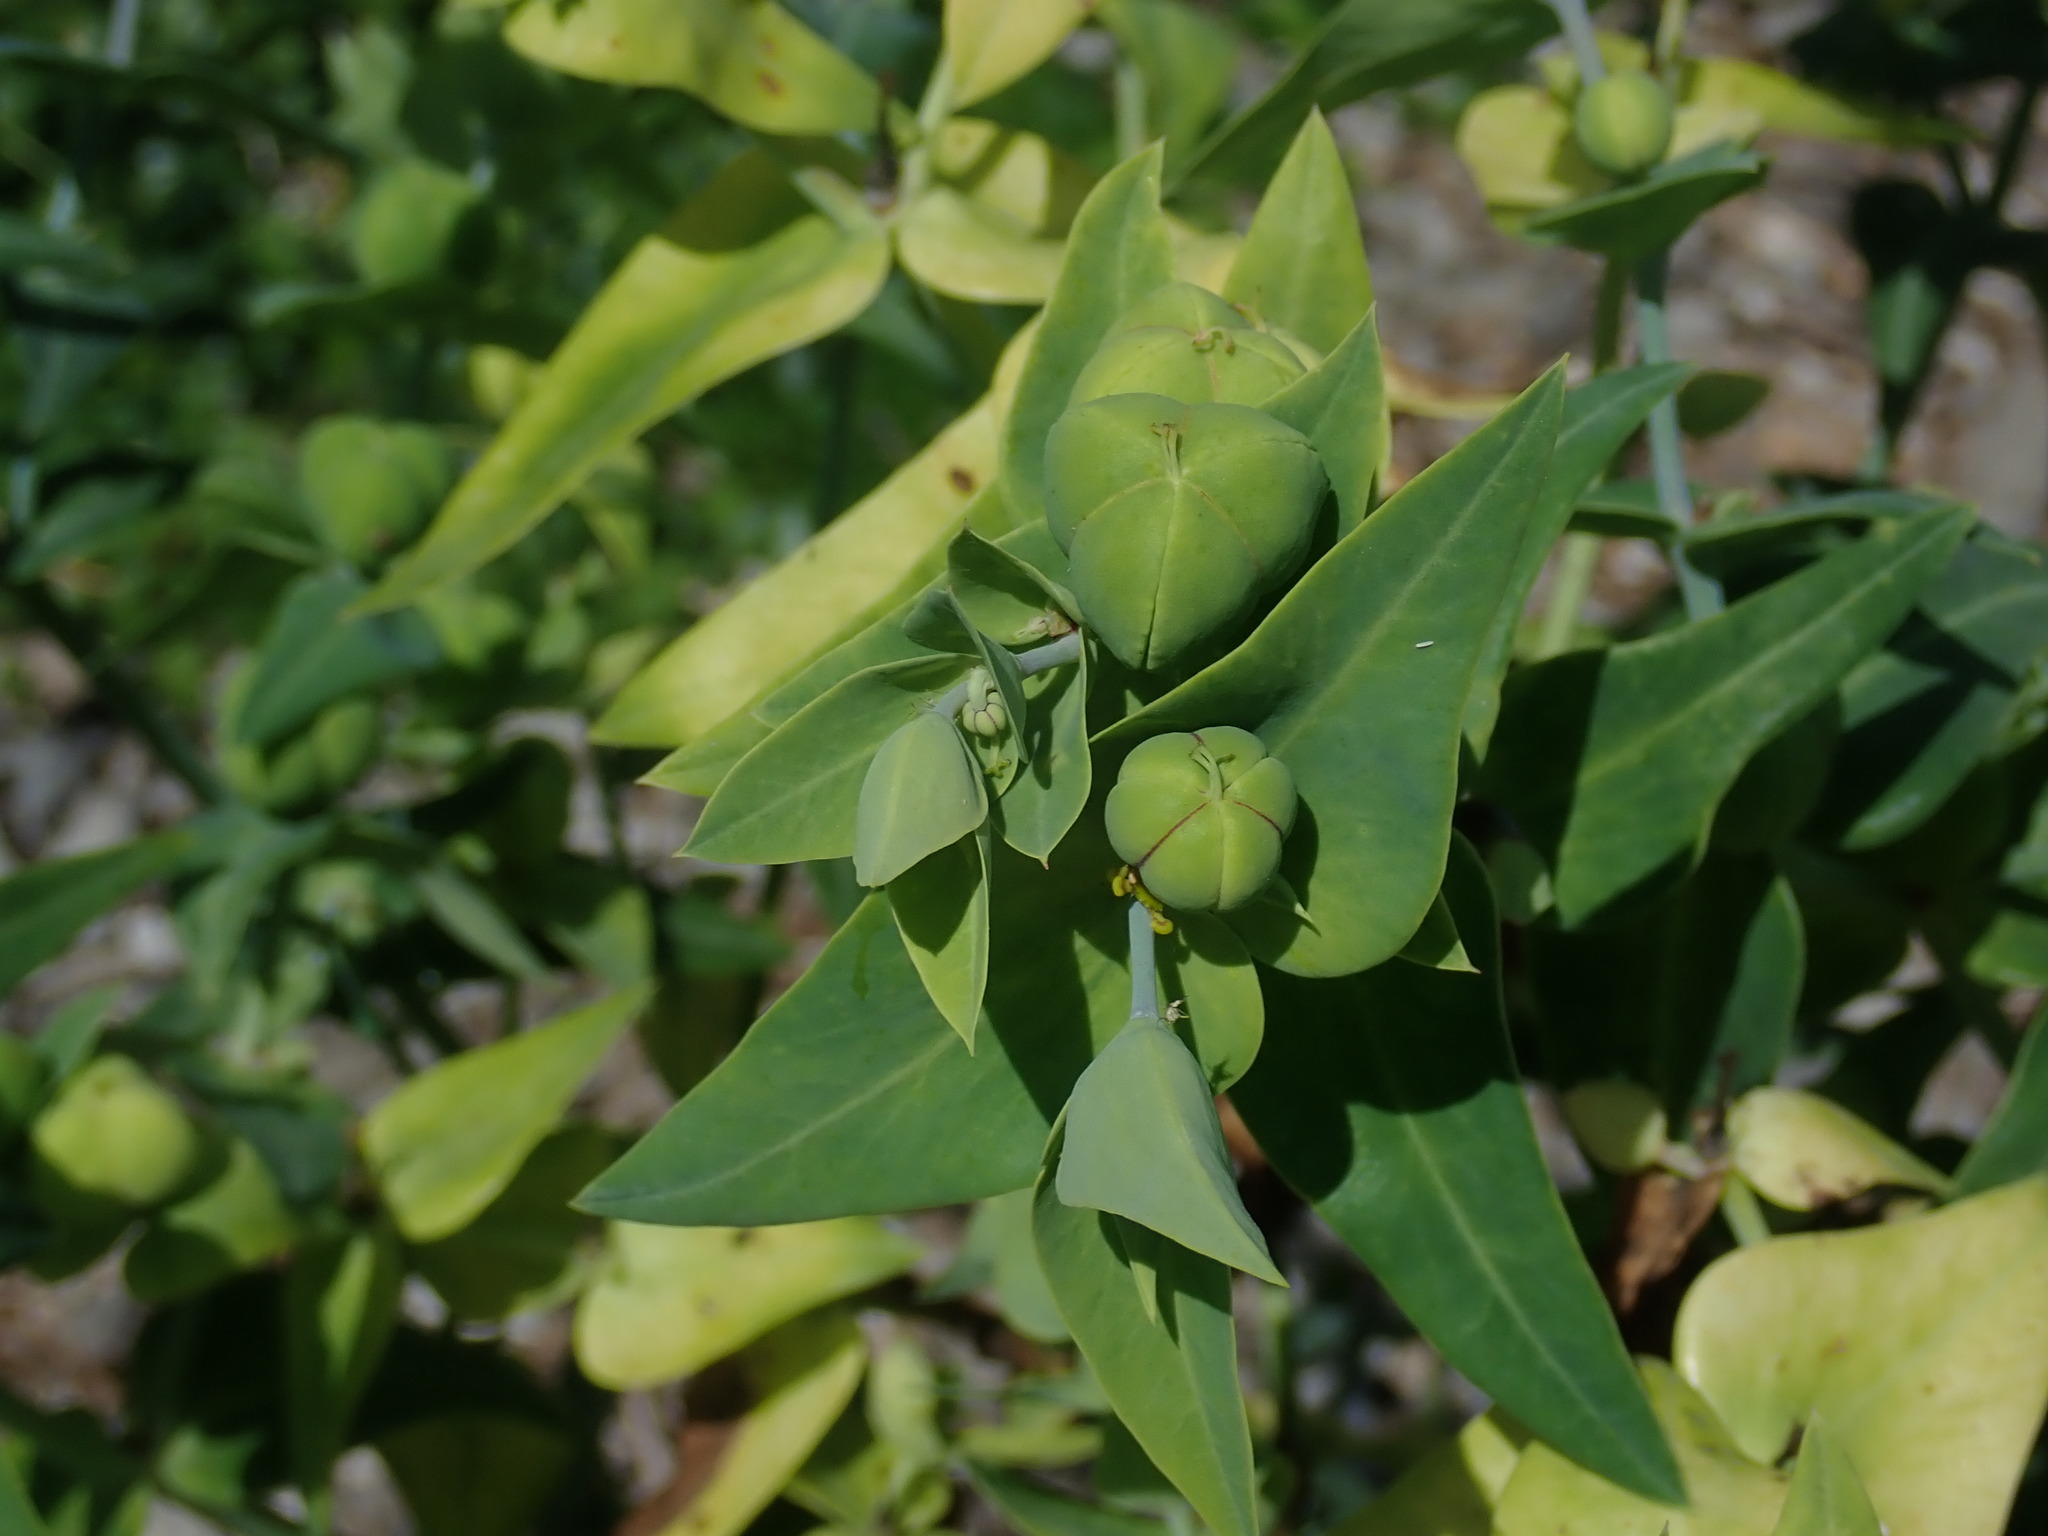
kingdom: Plantae
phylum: Tracheophyta
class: Magnoliopsida
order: Malpighiales
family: Euphorbiaceae
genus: Euphorbia
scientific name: Euphorbia lathyris
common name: Caper spurge
